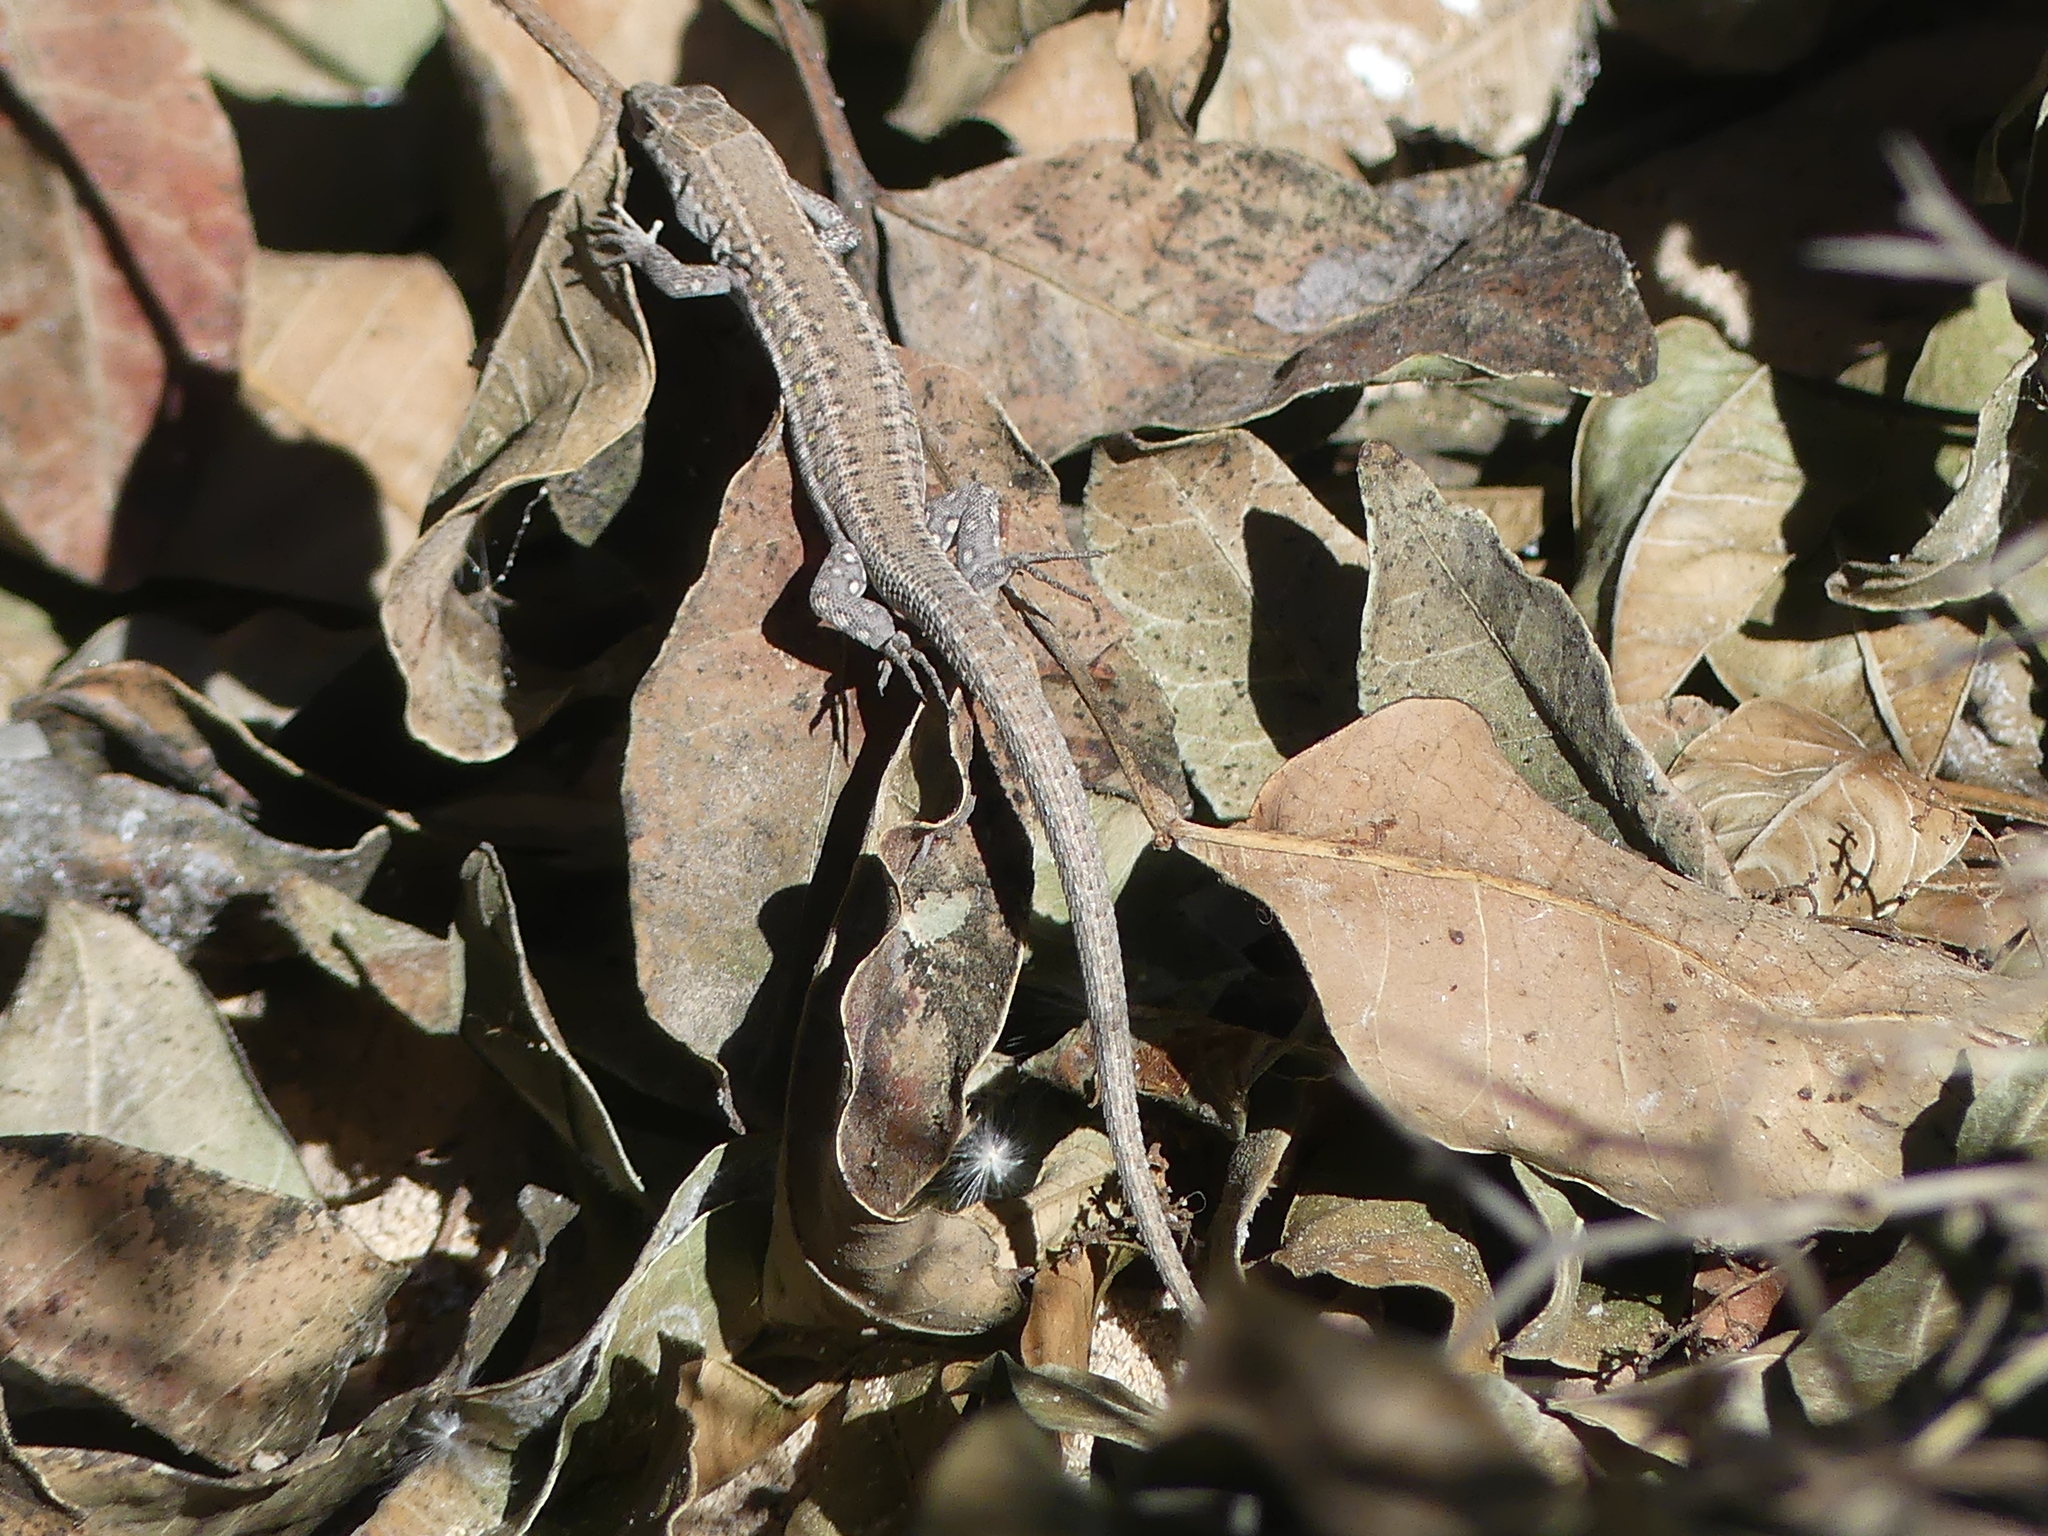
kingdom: Animalia
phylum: Chordata
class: Squamata
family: Lacertidae
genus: Gallotia
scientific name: Gallotia atlantica
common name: Atlantic lizard
